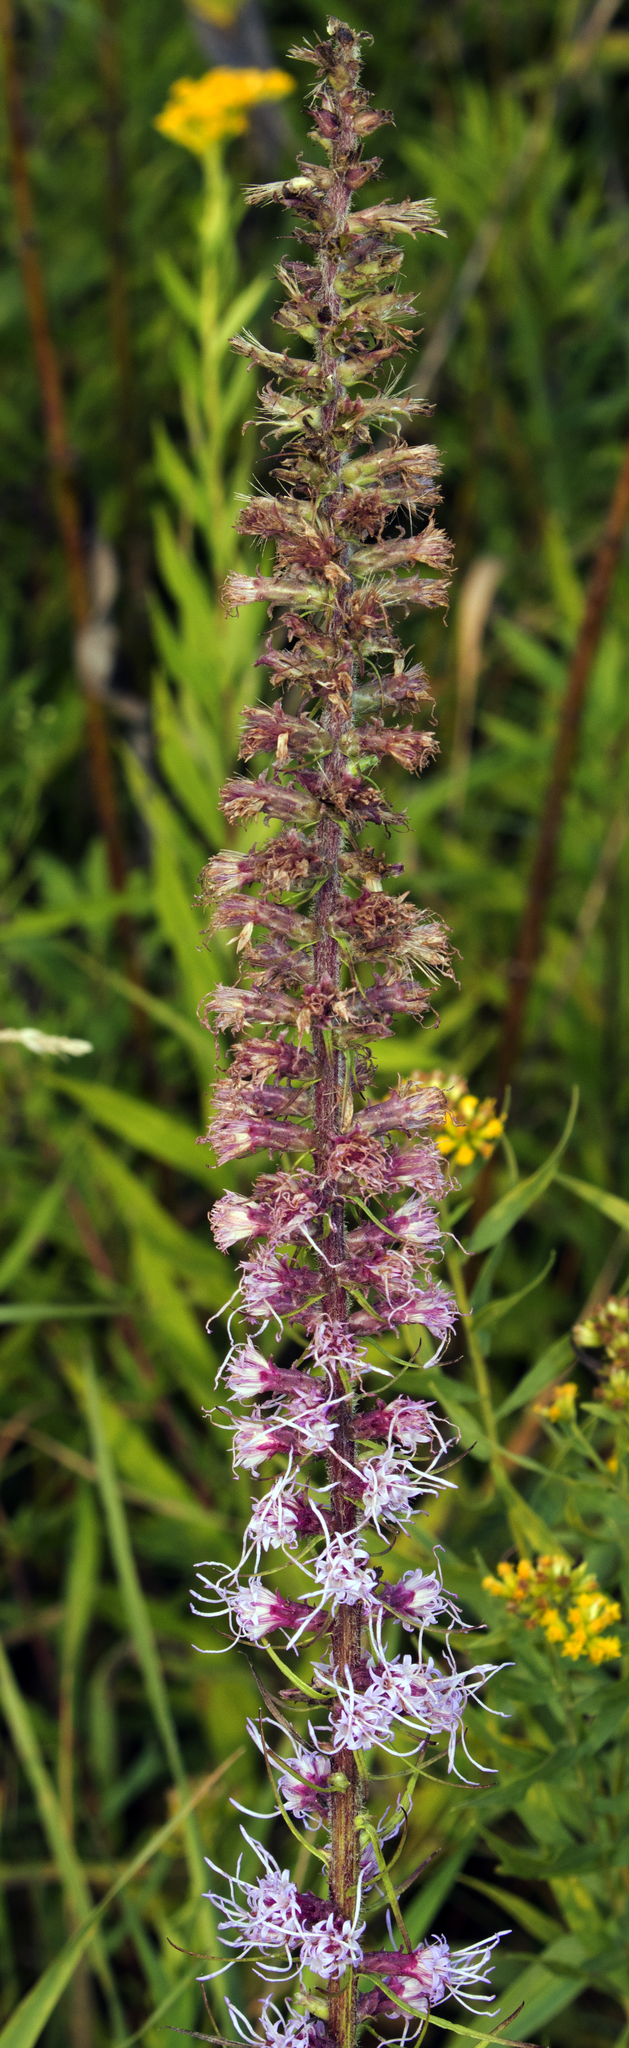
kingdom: Plantae
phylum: Tracheophyta
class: Magnoliopsida
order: Asterales
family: Asteraceae
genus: Liatris
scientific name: Liatris pycnostachya
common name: Cattail gayfeather
